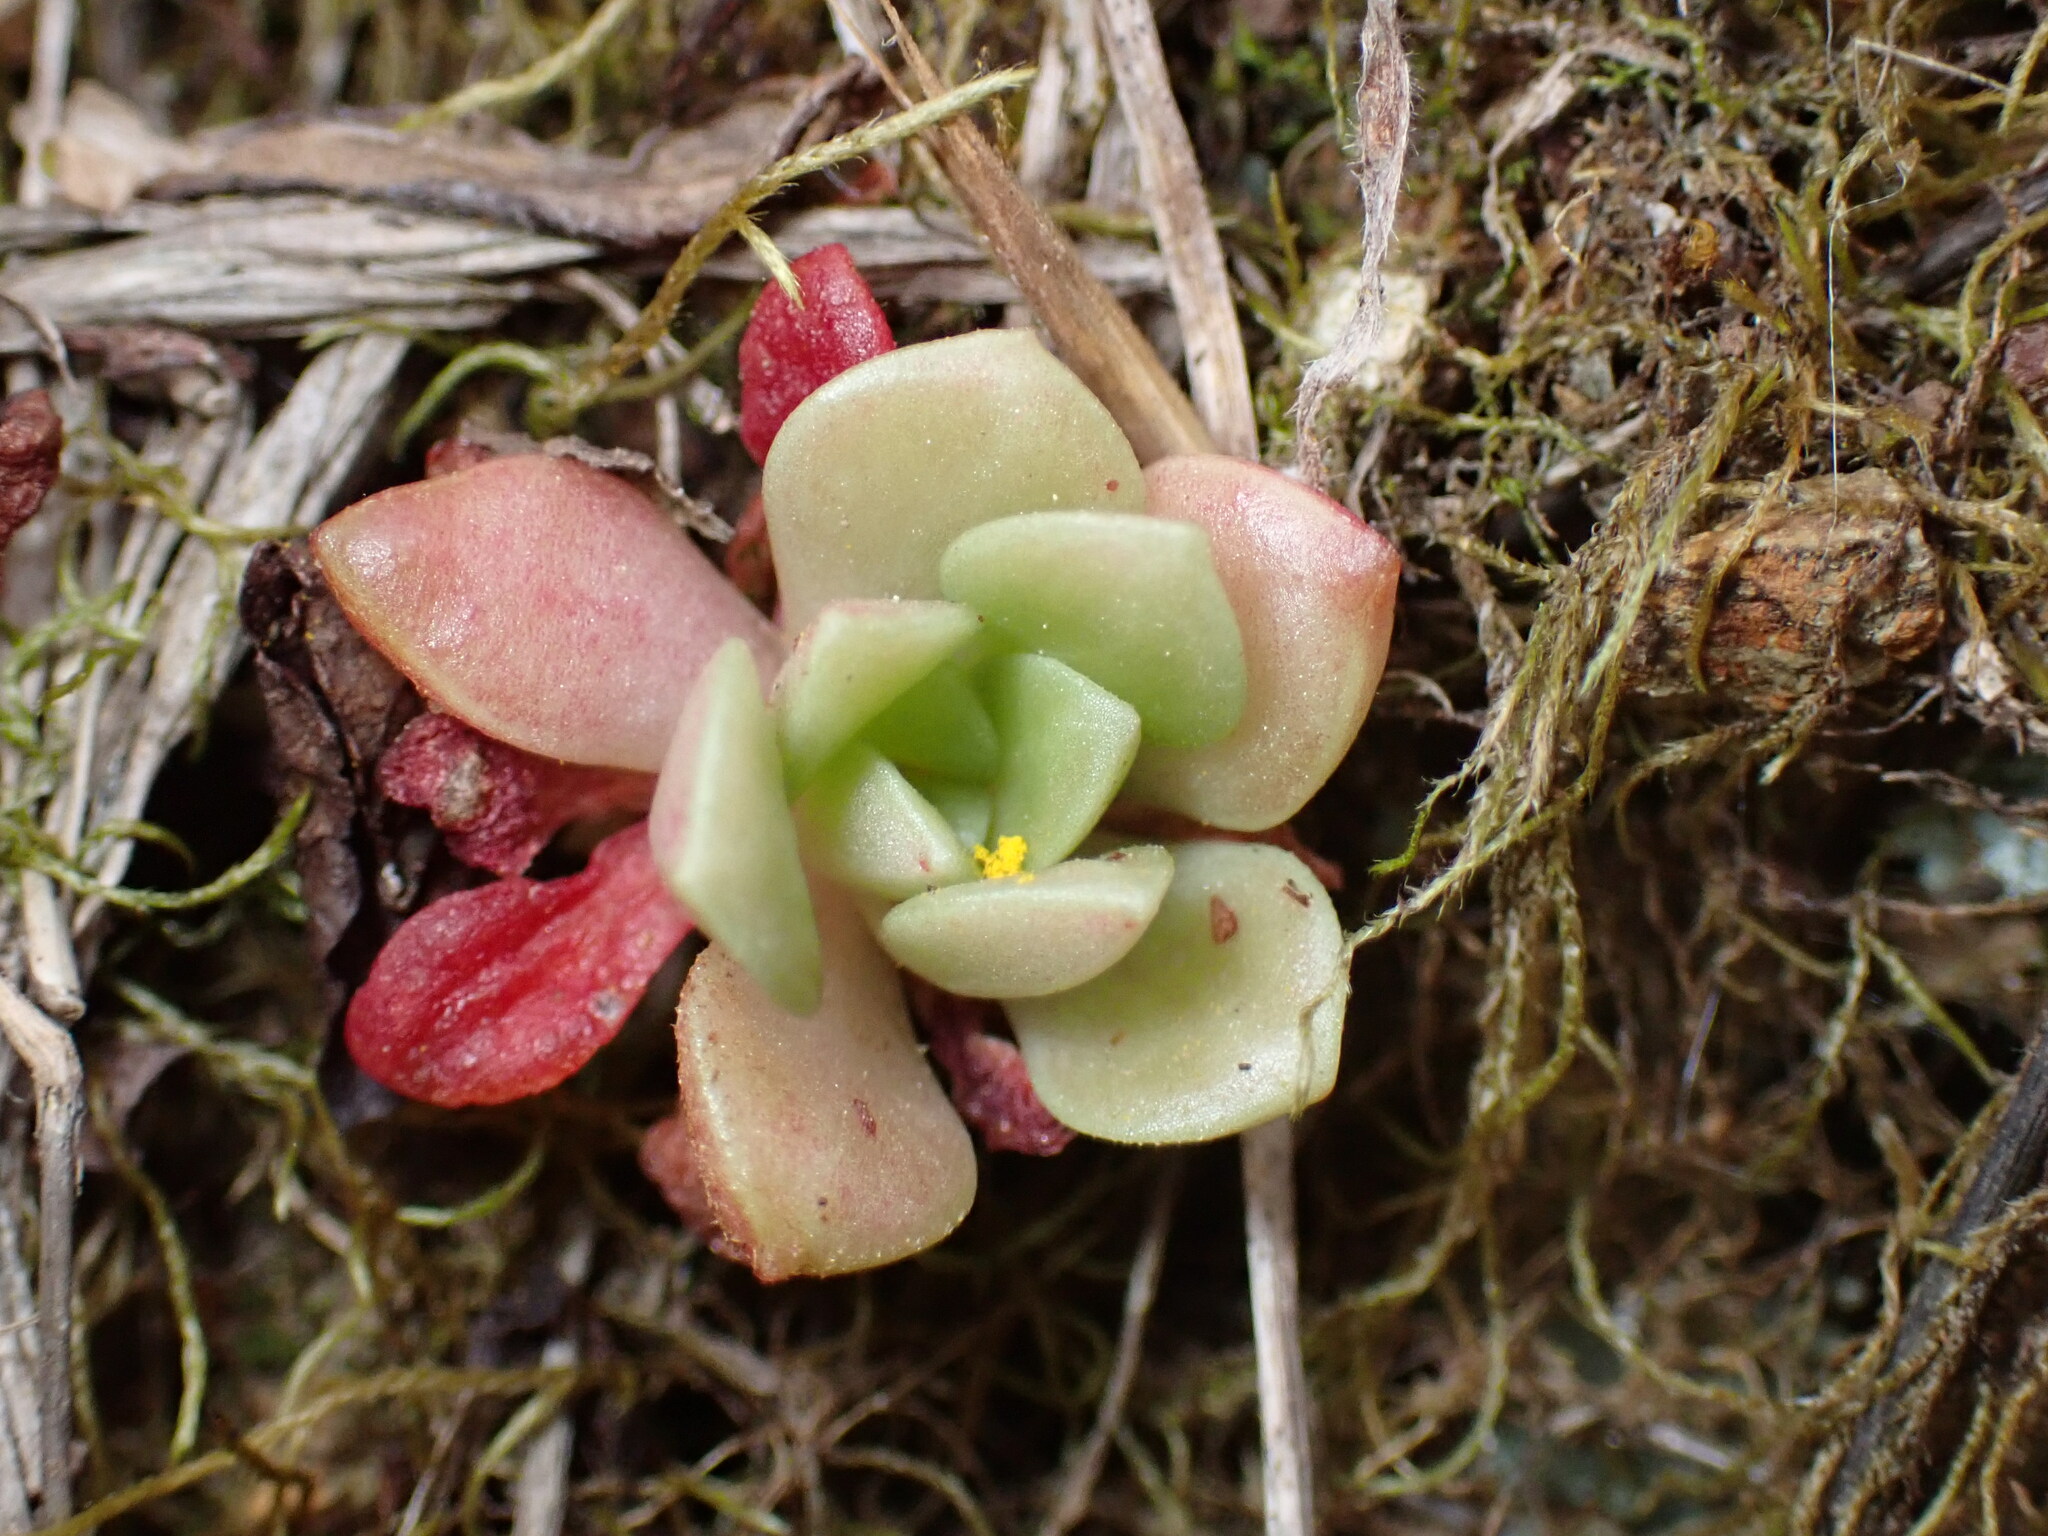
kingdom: Plantae
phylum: Tracheophyta
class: Magnoliopsida
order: Saxifragales
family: Crassulaceae
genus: Sedum
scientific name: Sedum spathulifolium
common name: Colorado stonecrop
